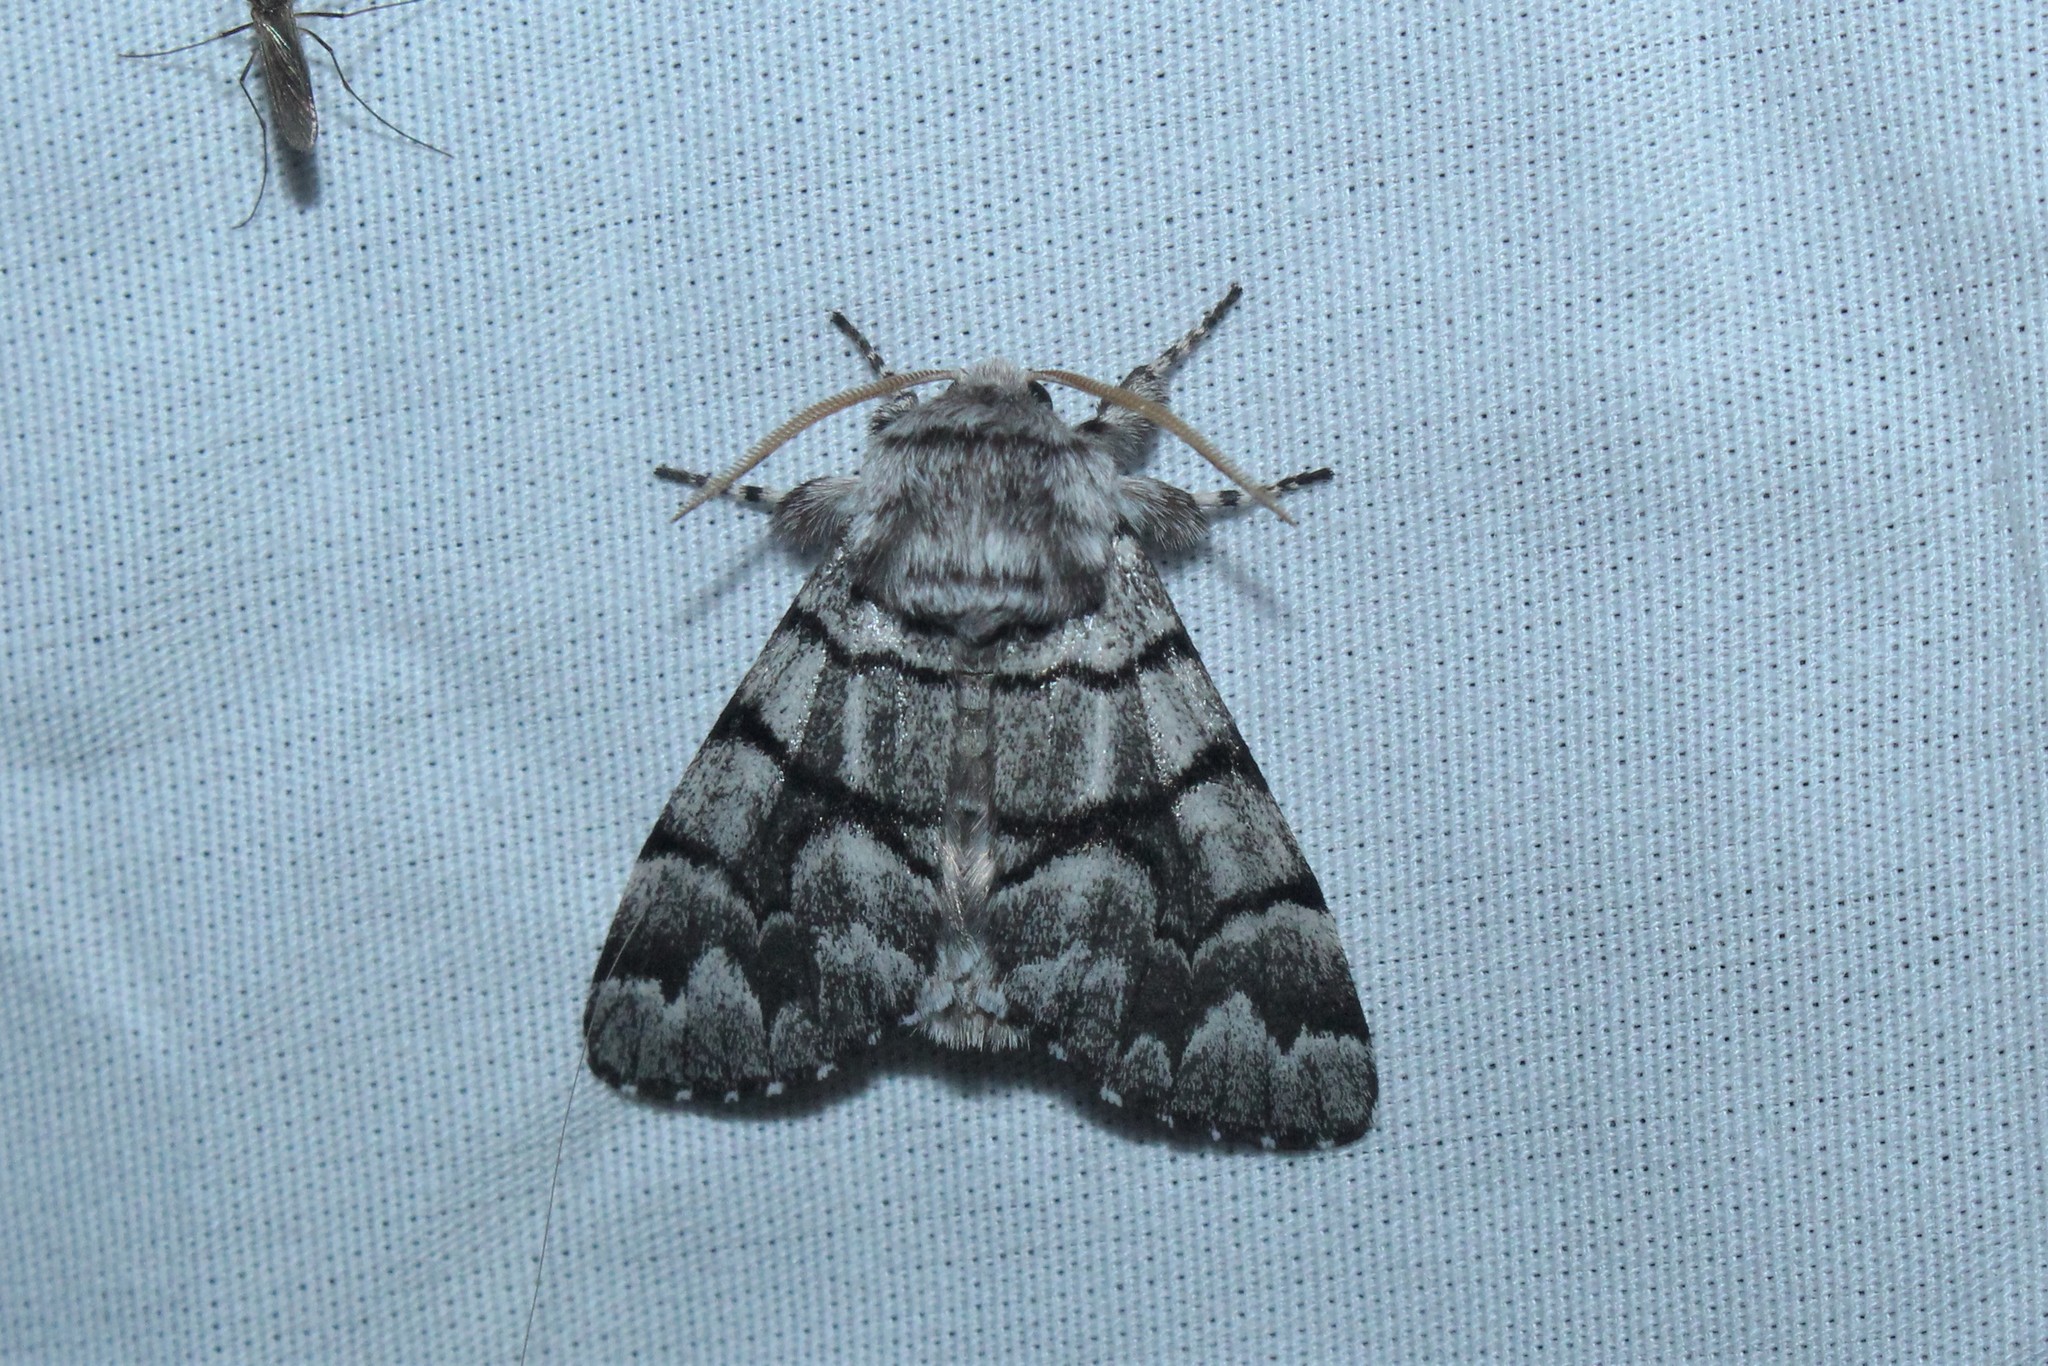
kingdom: Animalia
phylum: Arthropoda
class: Insecta
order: Lepidoptera
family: Noctuidae
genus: Panthea
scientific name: Panthea furcilla
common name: Eastern panthea moth
